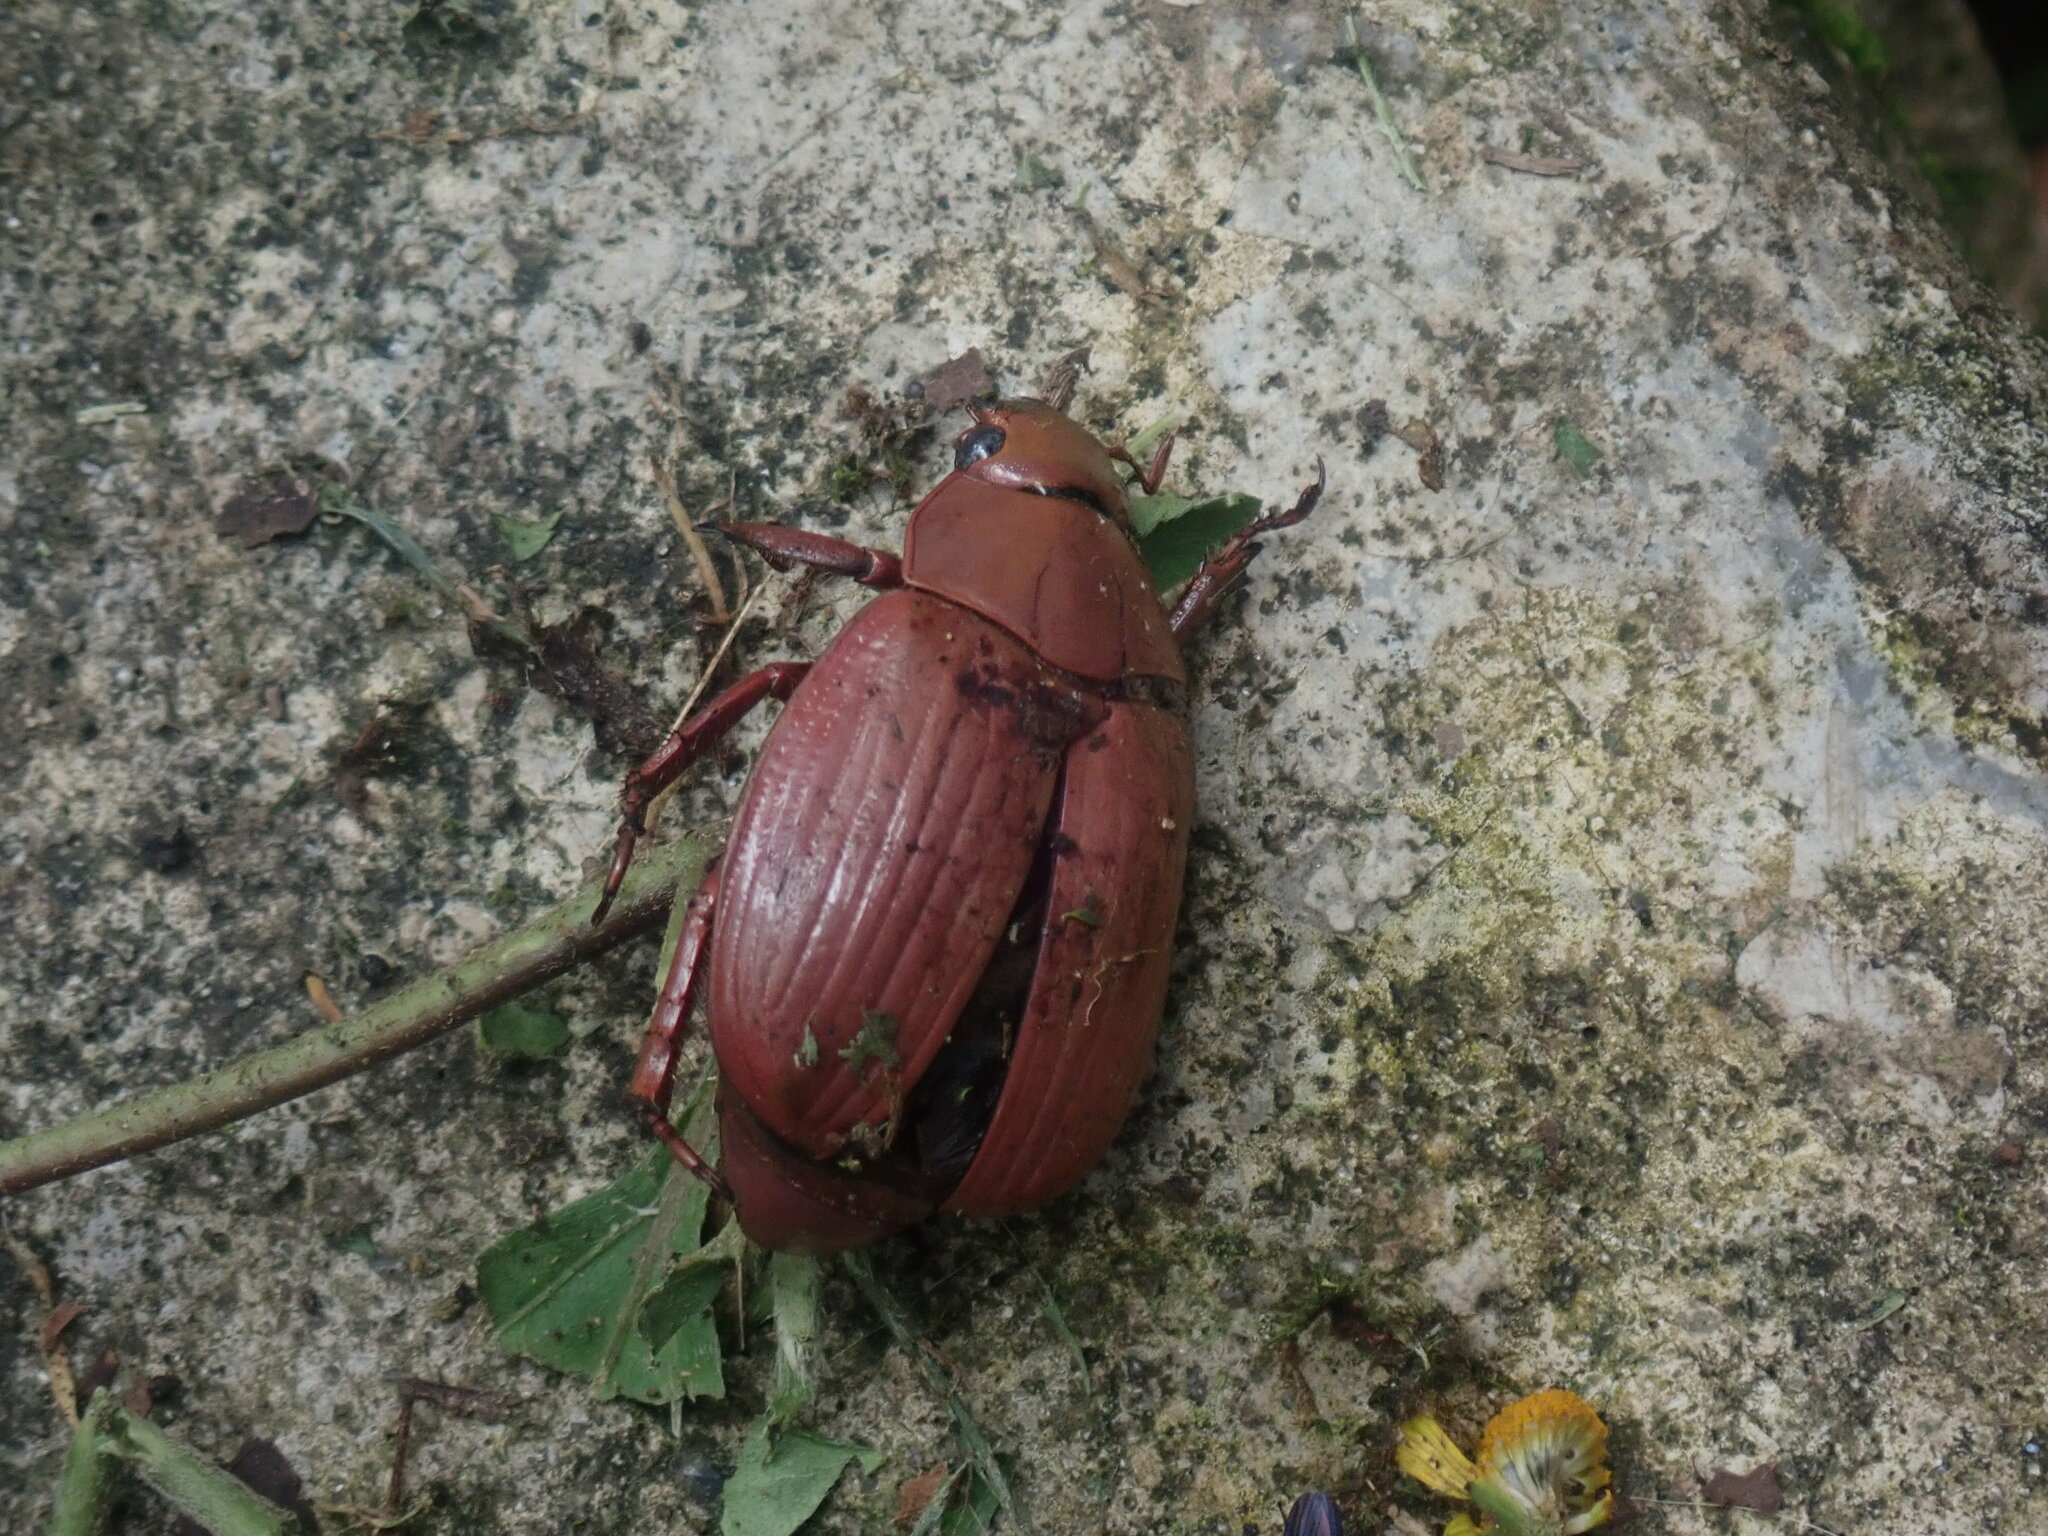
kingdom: Animalia
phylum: Arthropoda
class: Insecta
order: Coleoptera
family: Scarabaeidae
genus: Chrysina
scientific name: Chrysina costata
